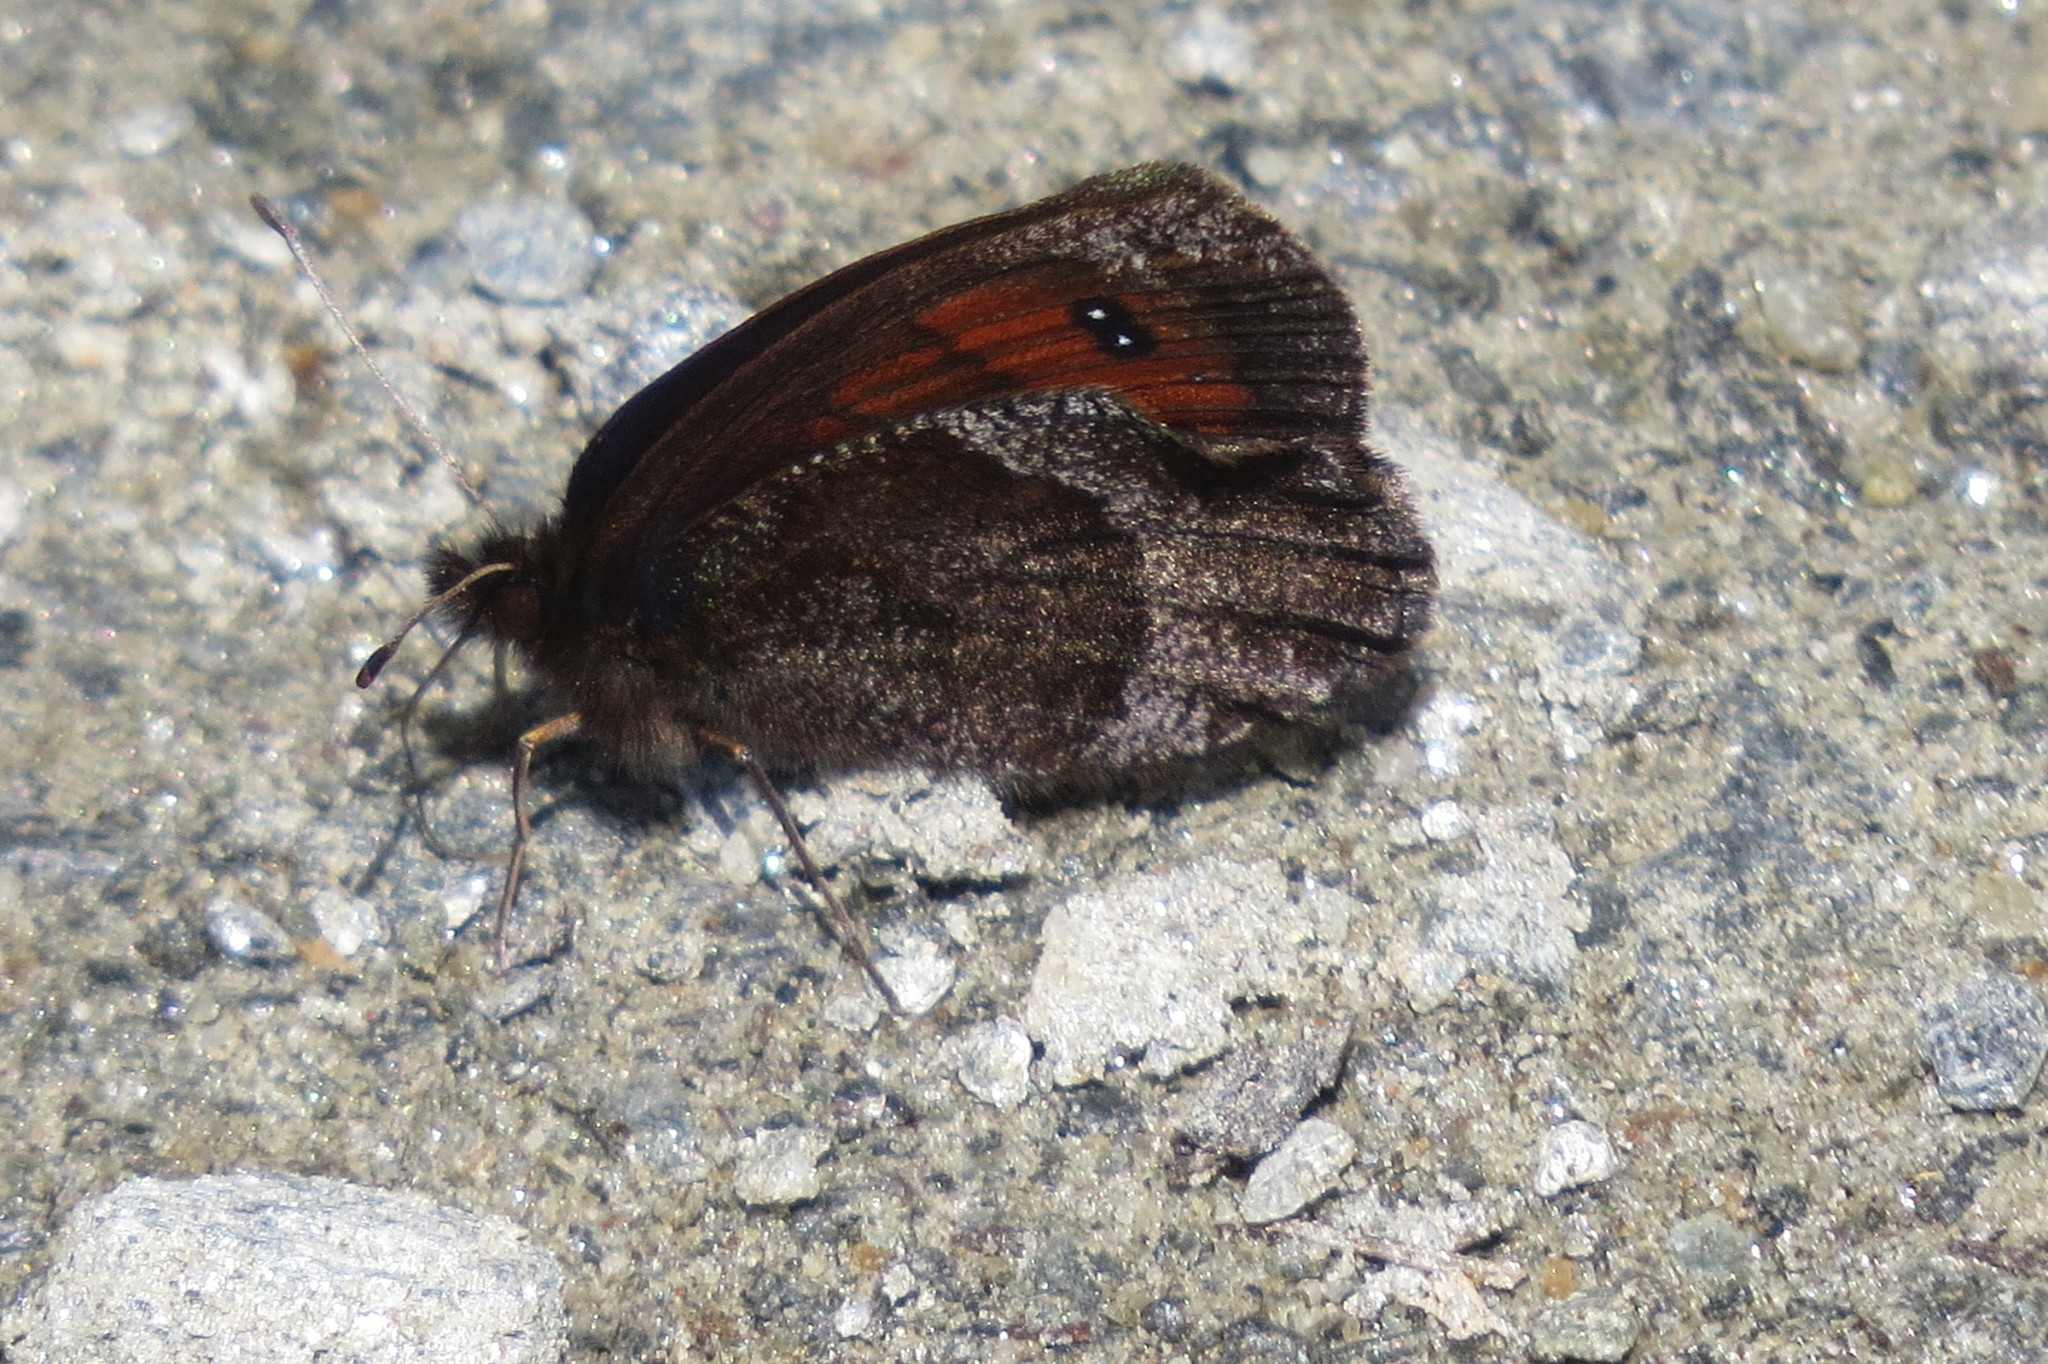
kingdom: Animalia
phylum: Arthropoda
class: Insecta
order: Lepidoptera
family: Nymphalidae
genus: Erebia
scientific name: Erebia pronoe
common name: Water ringlet
